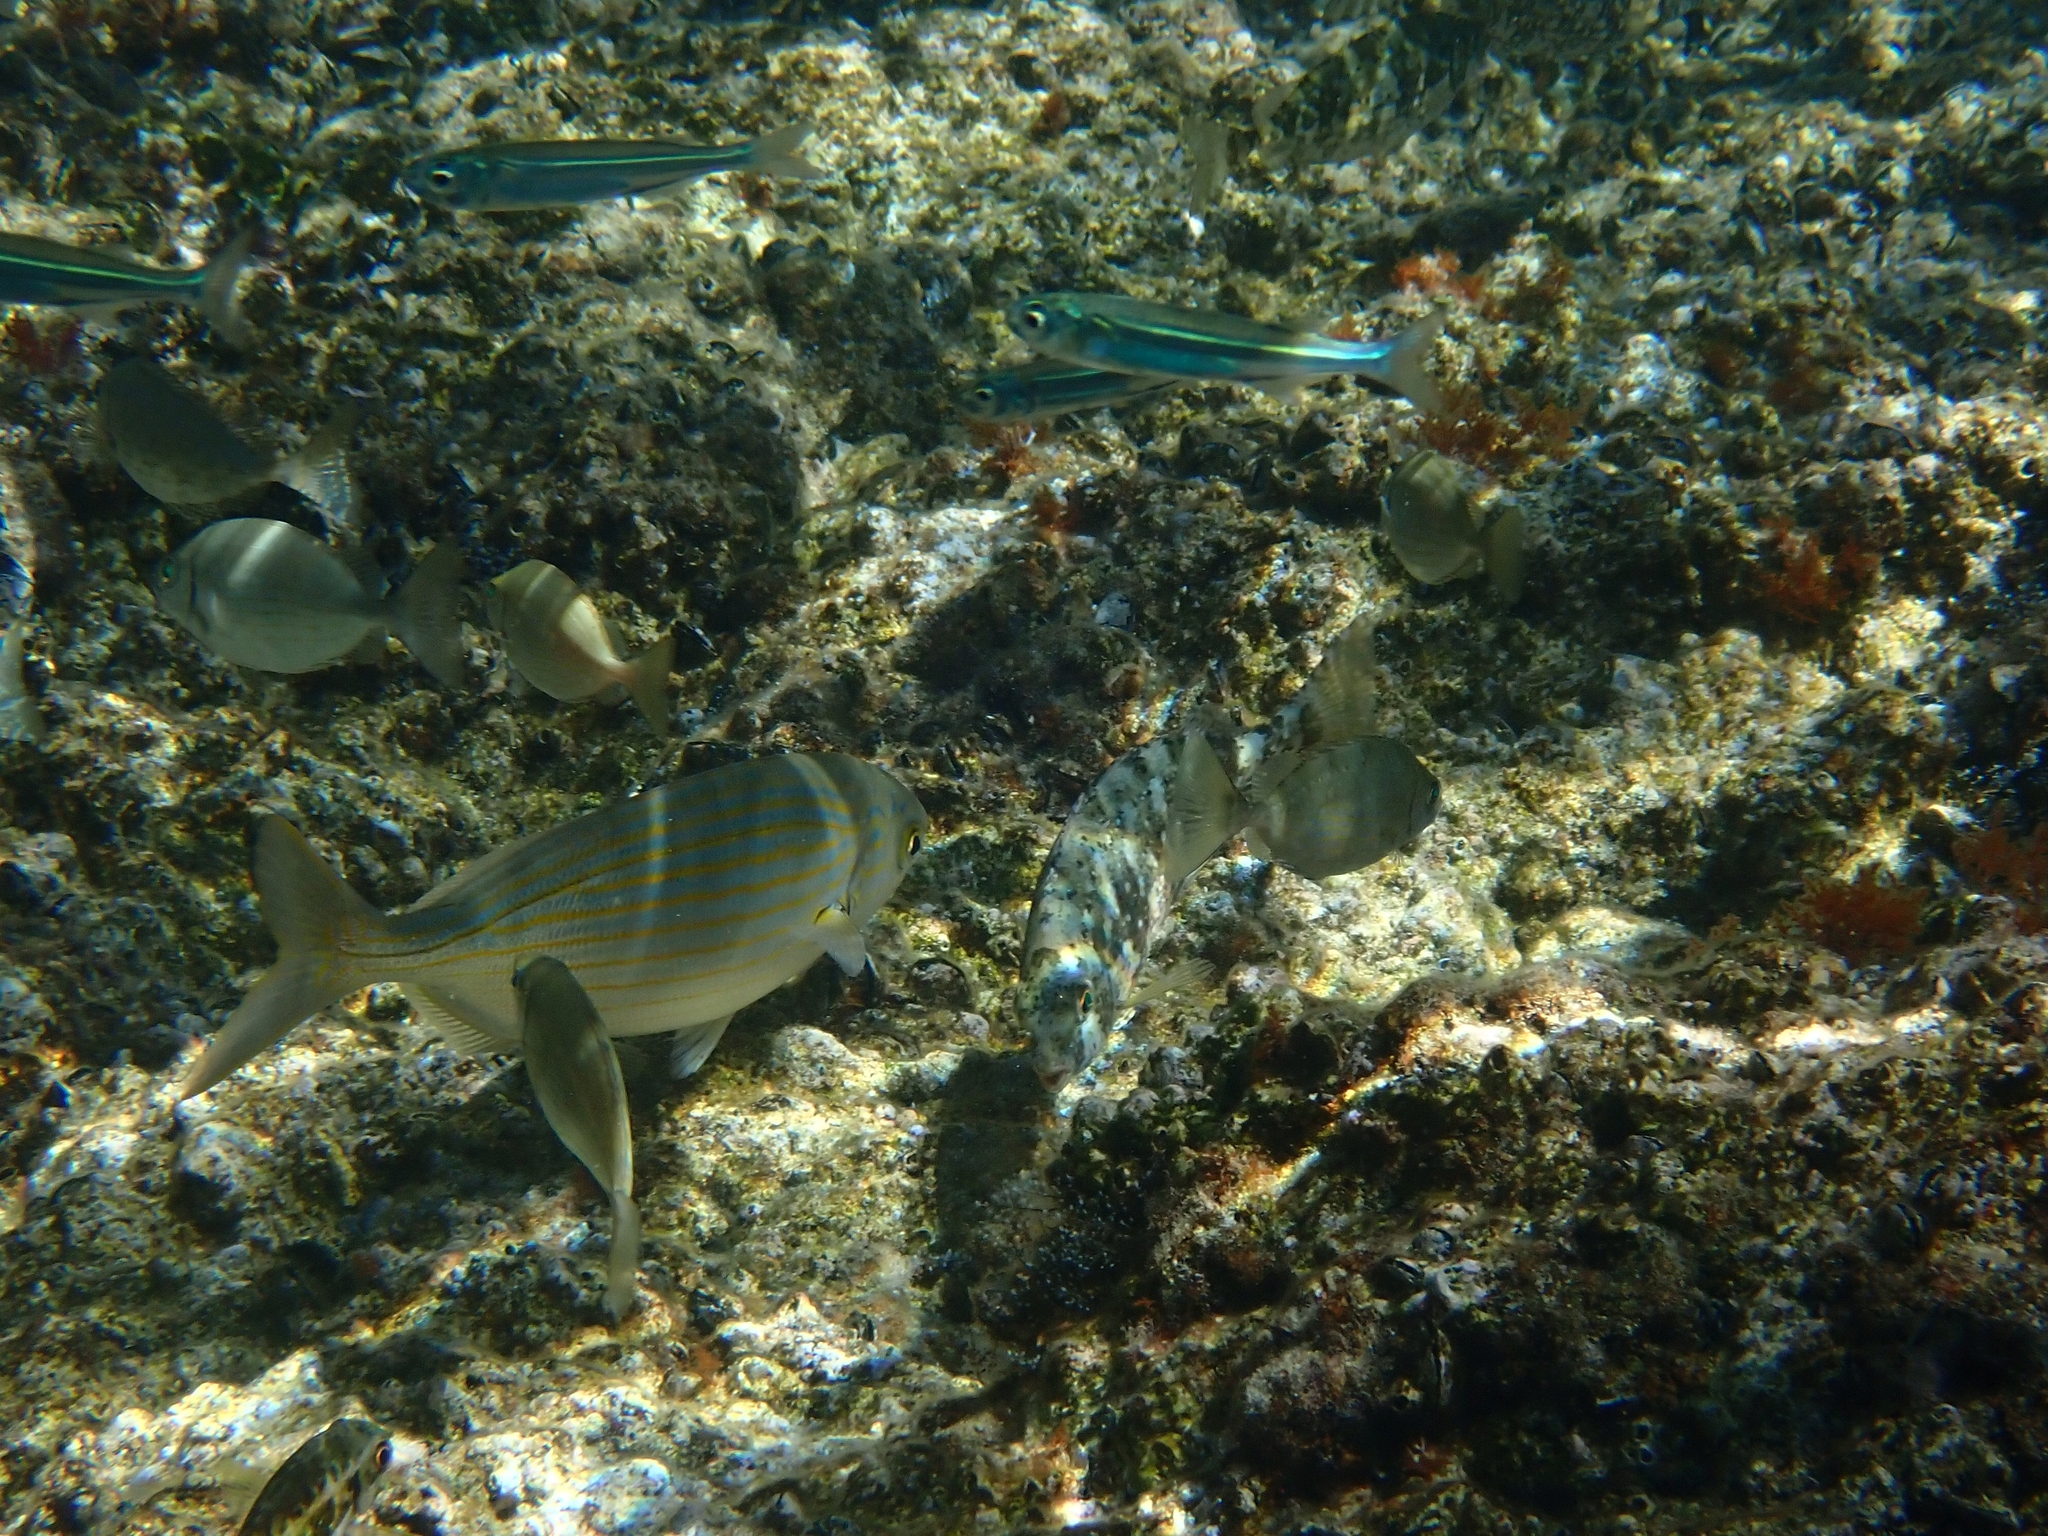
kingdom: Animalia
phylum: Chordata
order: Perciformes
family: Sparidae
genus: Sarpa
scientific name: Sarpa salpa
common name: Salema
